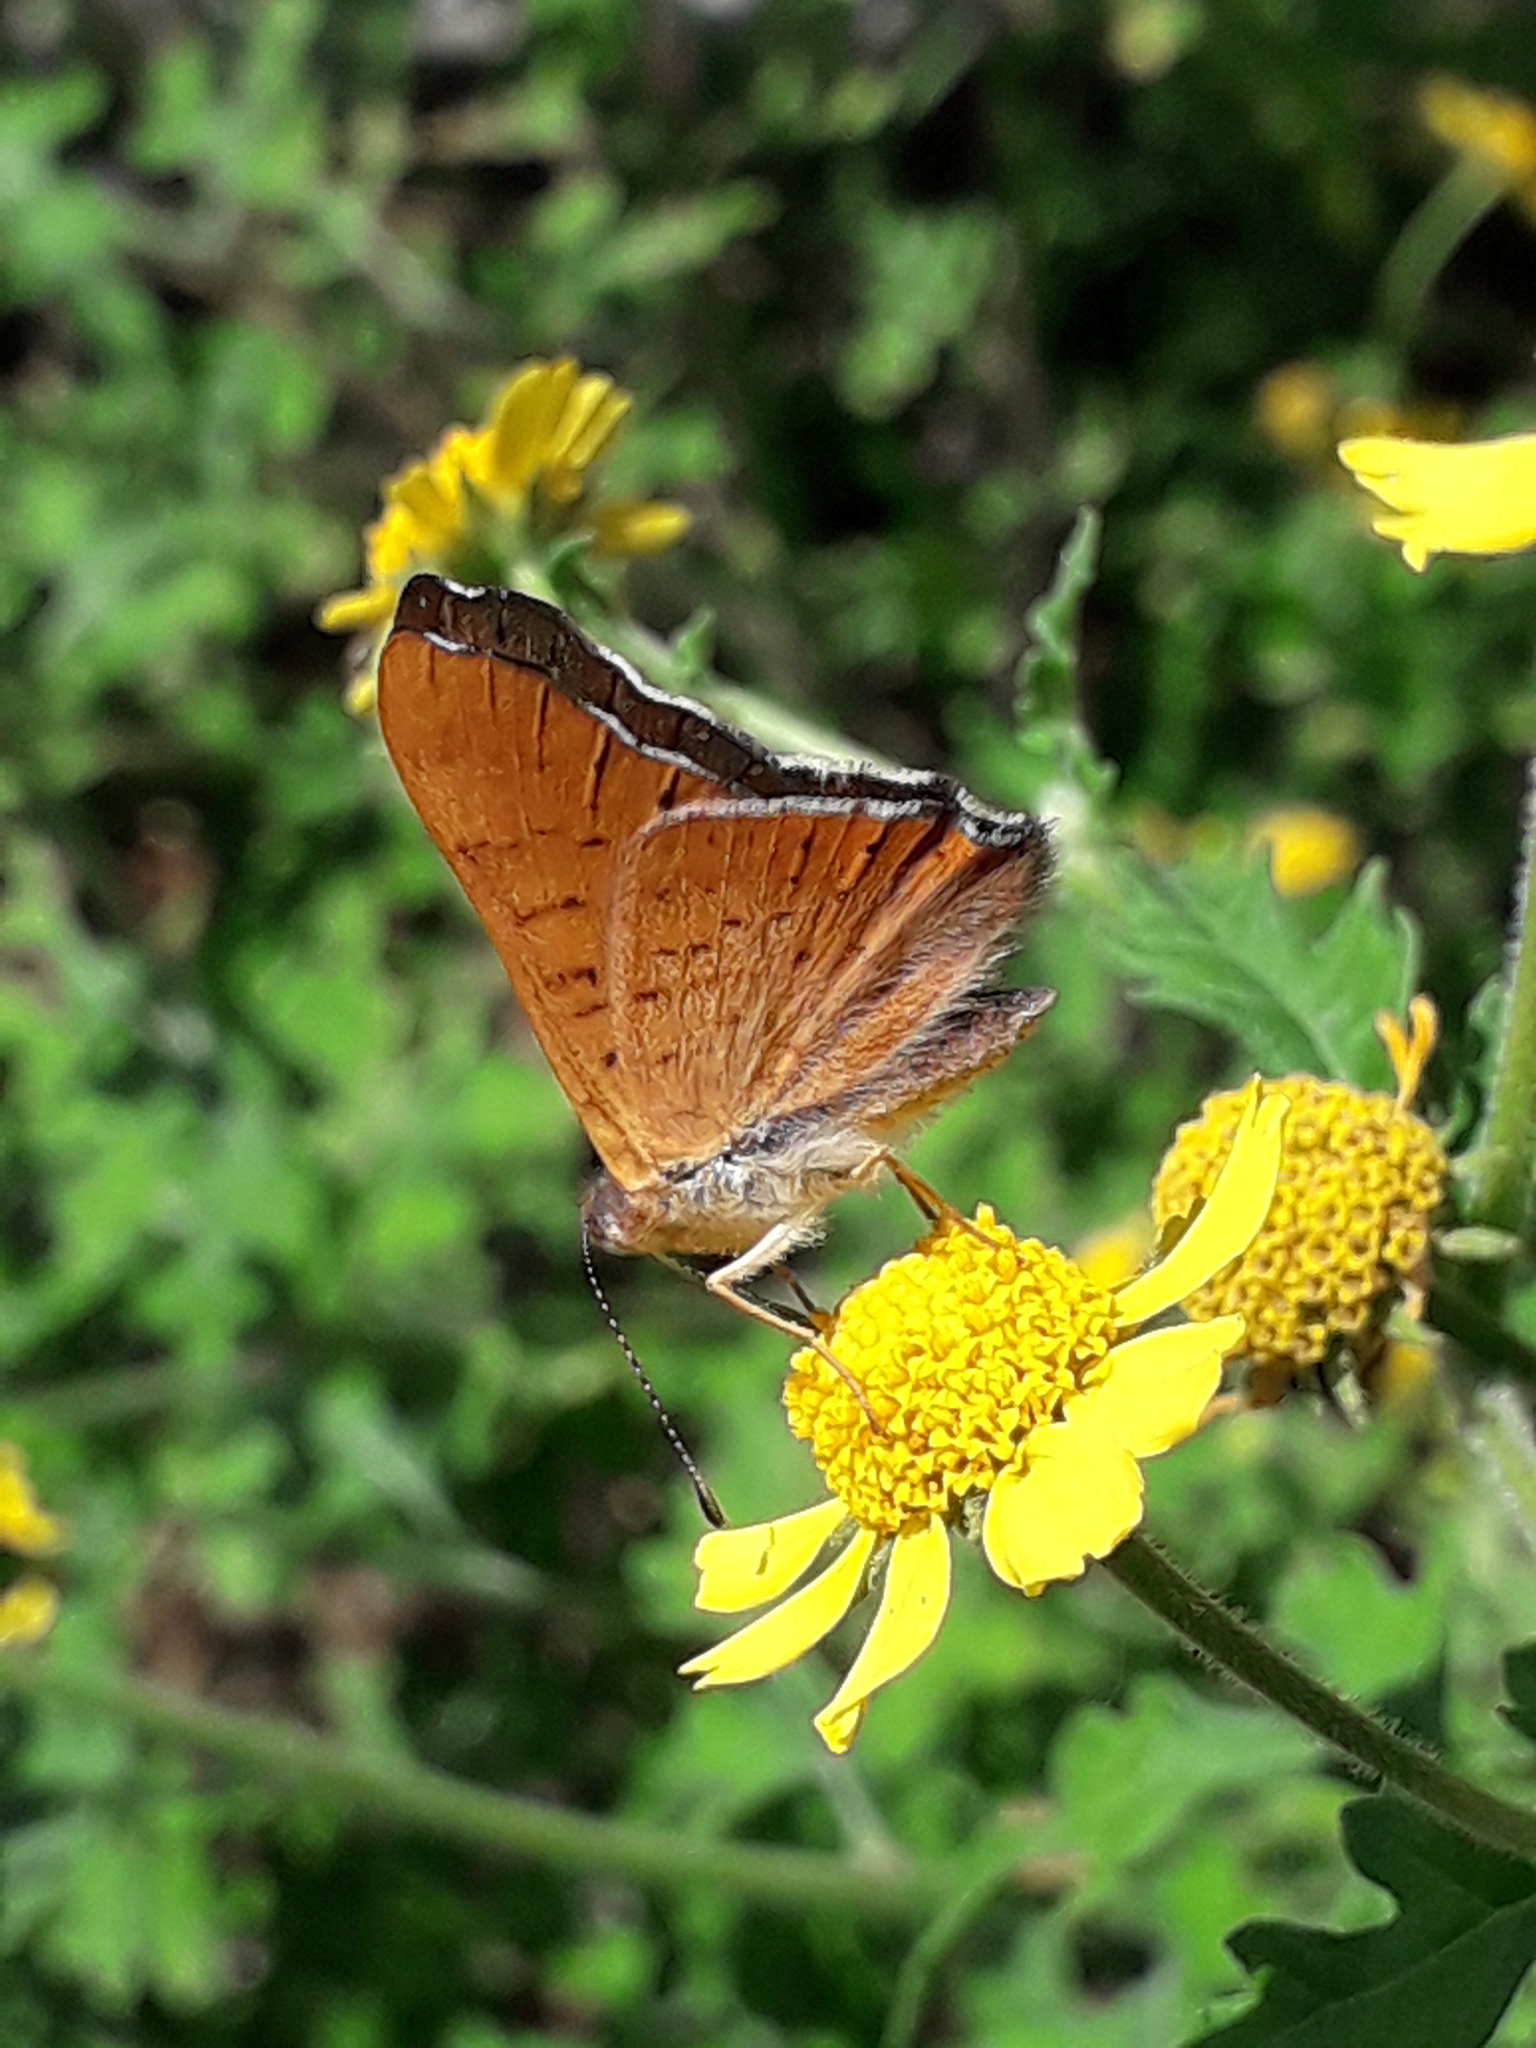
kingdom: Animalia
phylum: Arthropoda
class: Insecta
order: Lepidoptera
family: Riodinidae
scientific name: Riodinidae
